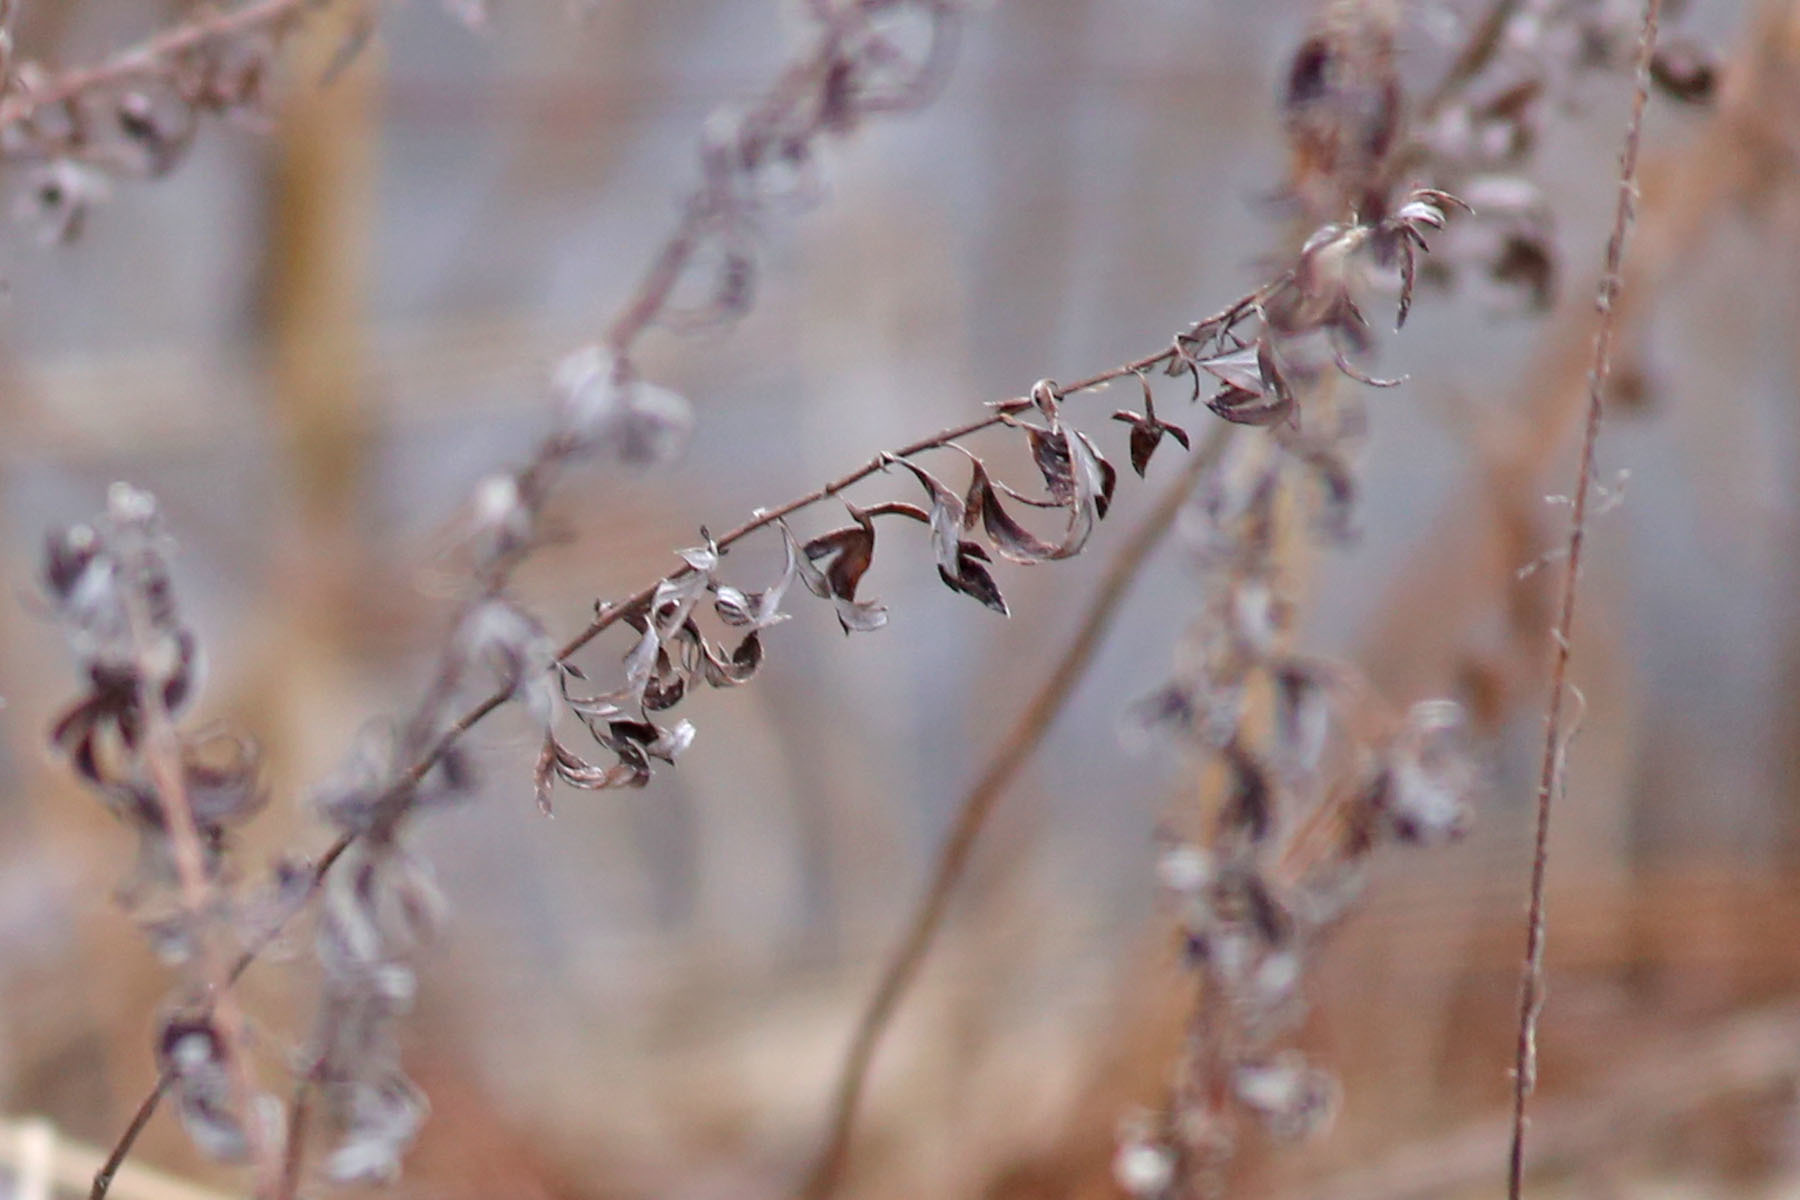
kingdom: Plantae
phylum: Tracheophyta
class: Magnoliopsida
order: Asterales
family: Asteraceae
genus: Artemisia
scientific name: Artemisia vulgaris
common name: Mugwort
